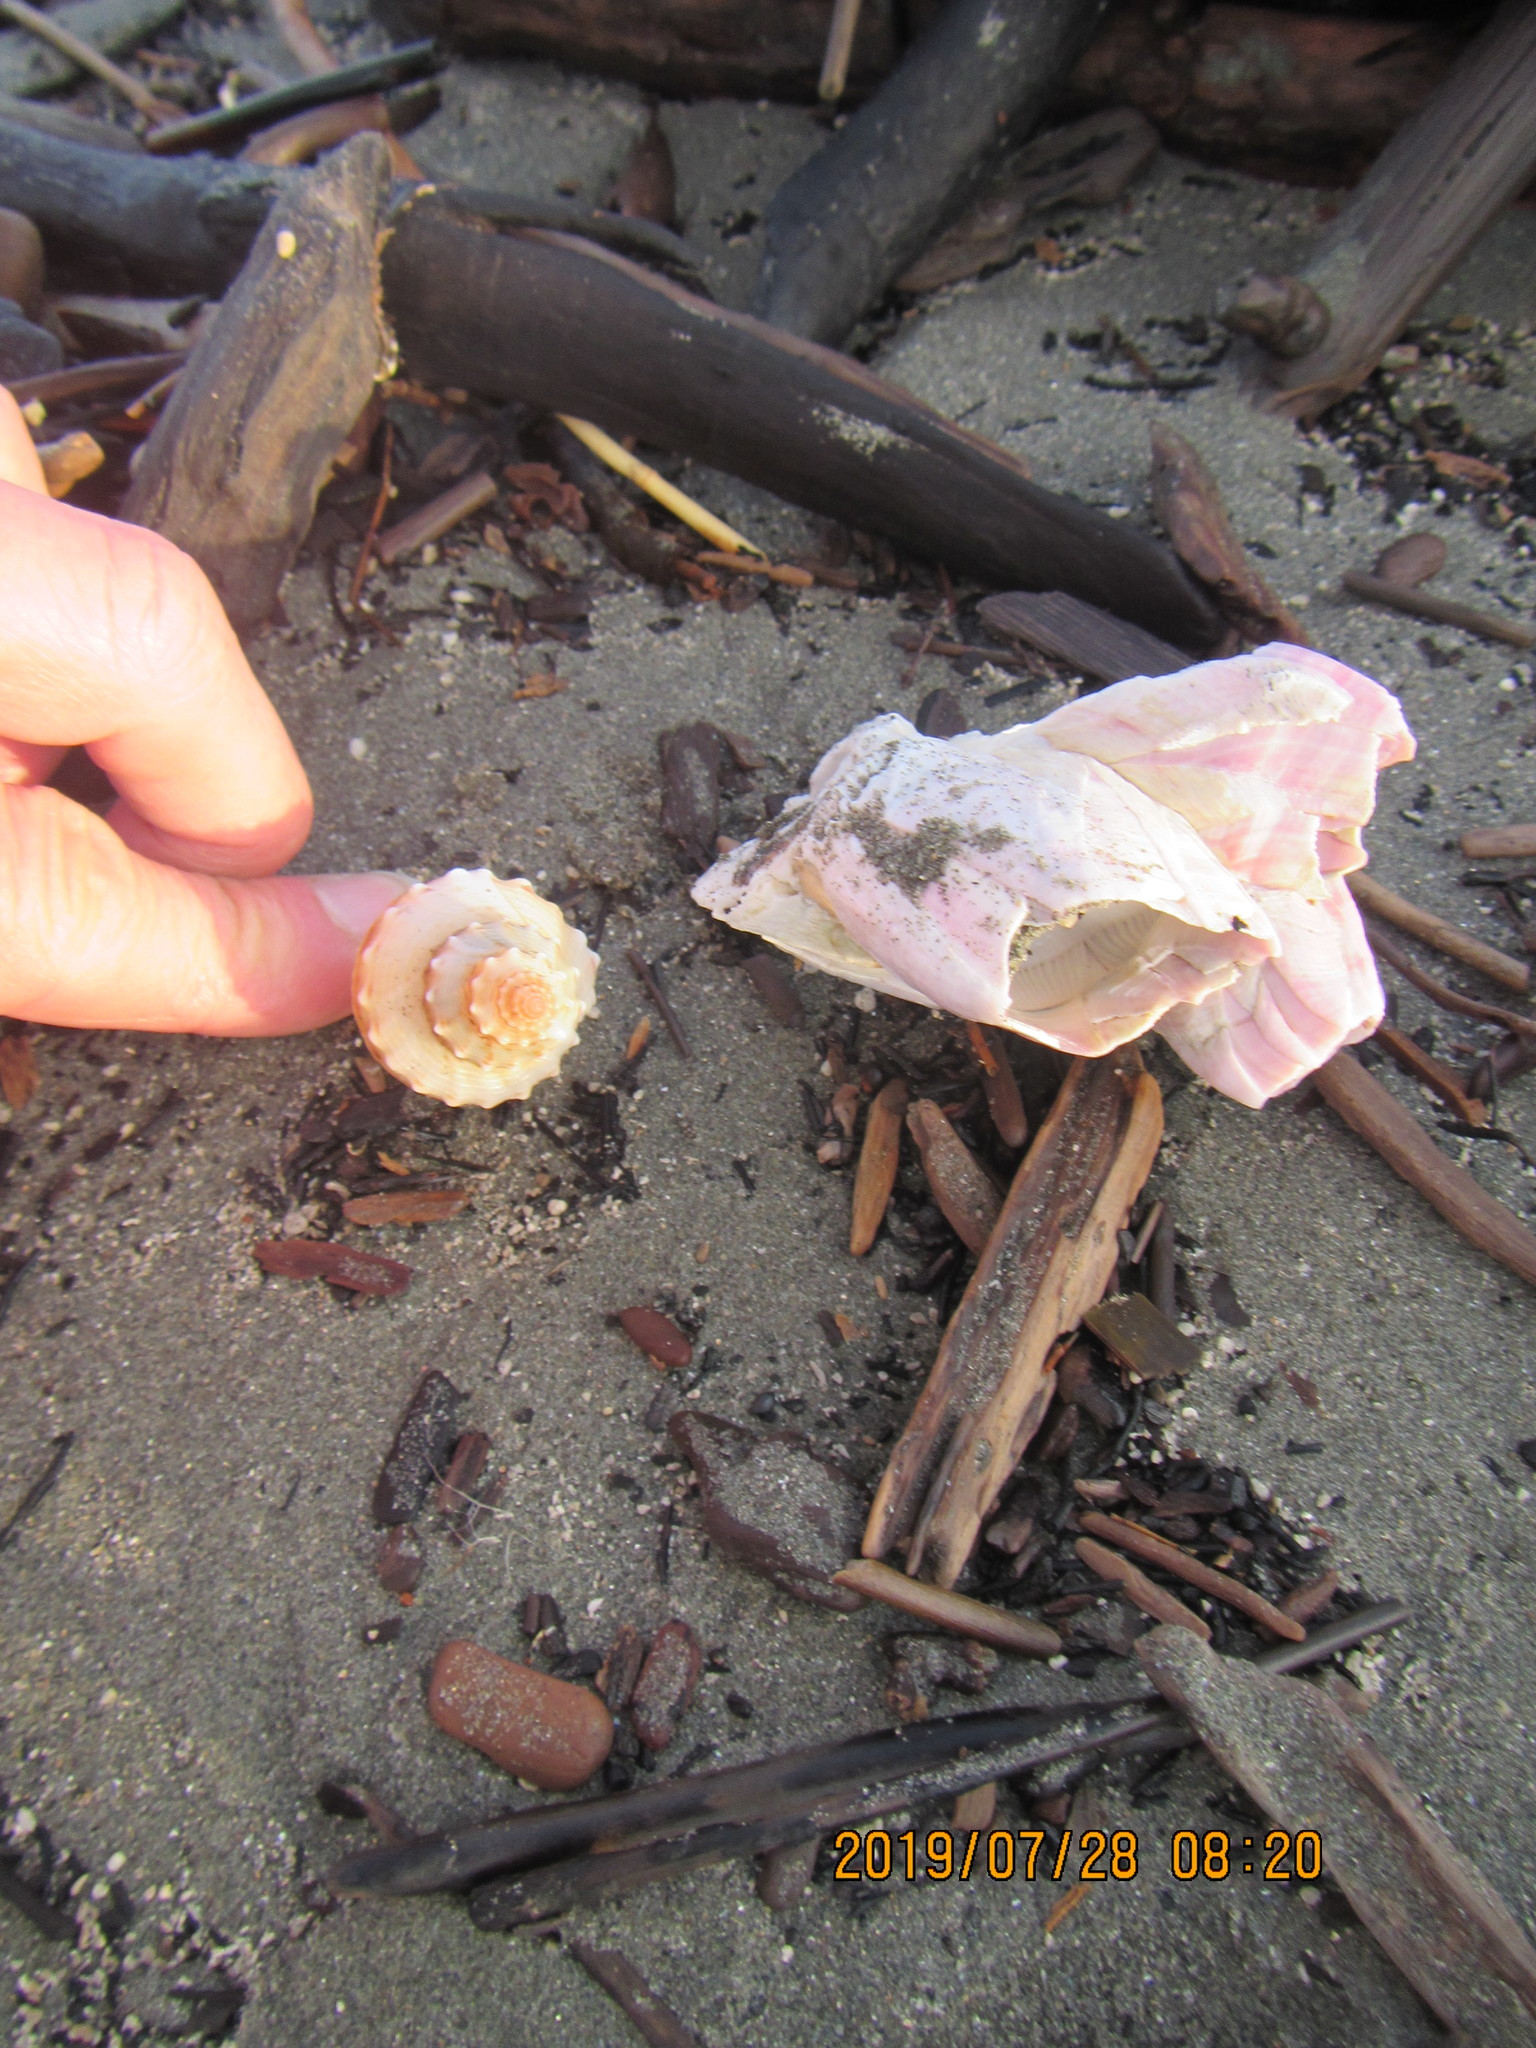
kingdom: Animalia
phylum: Mollusca
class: Gastropoda
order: Neogastropoda
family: Prosiphonidae
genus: Austrofusus
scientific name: Austrofusus glans
